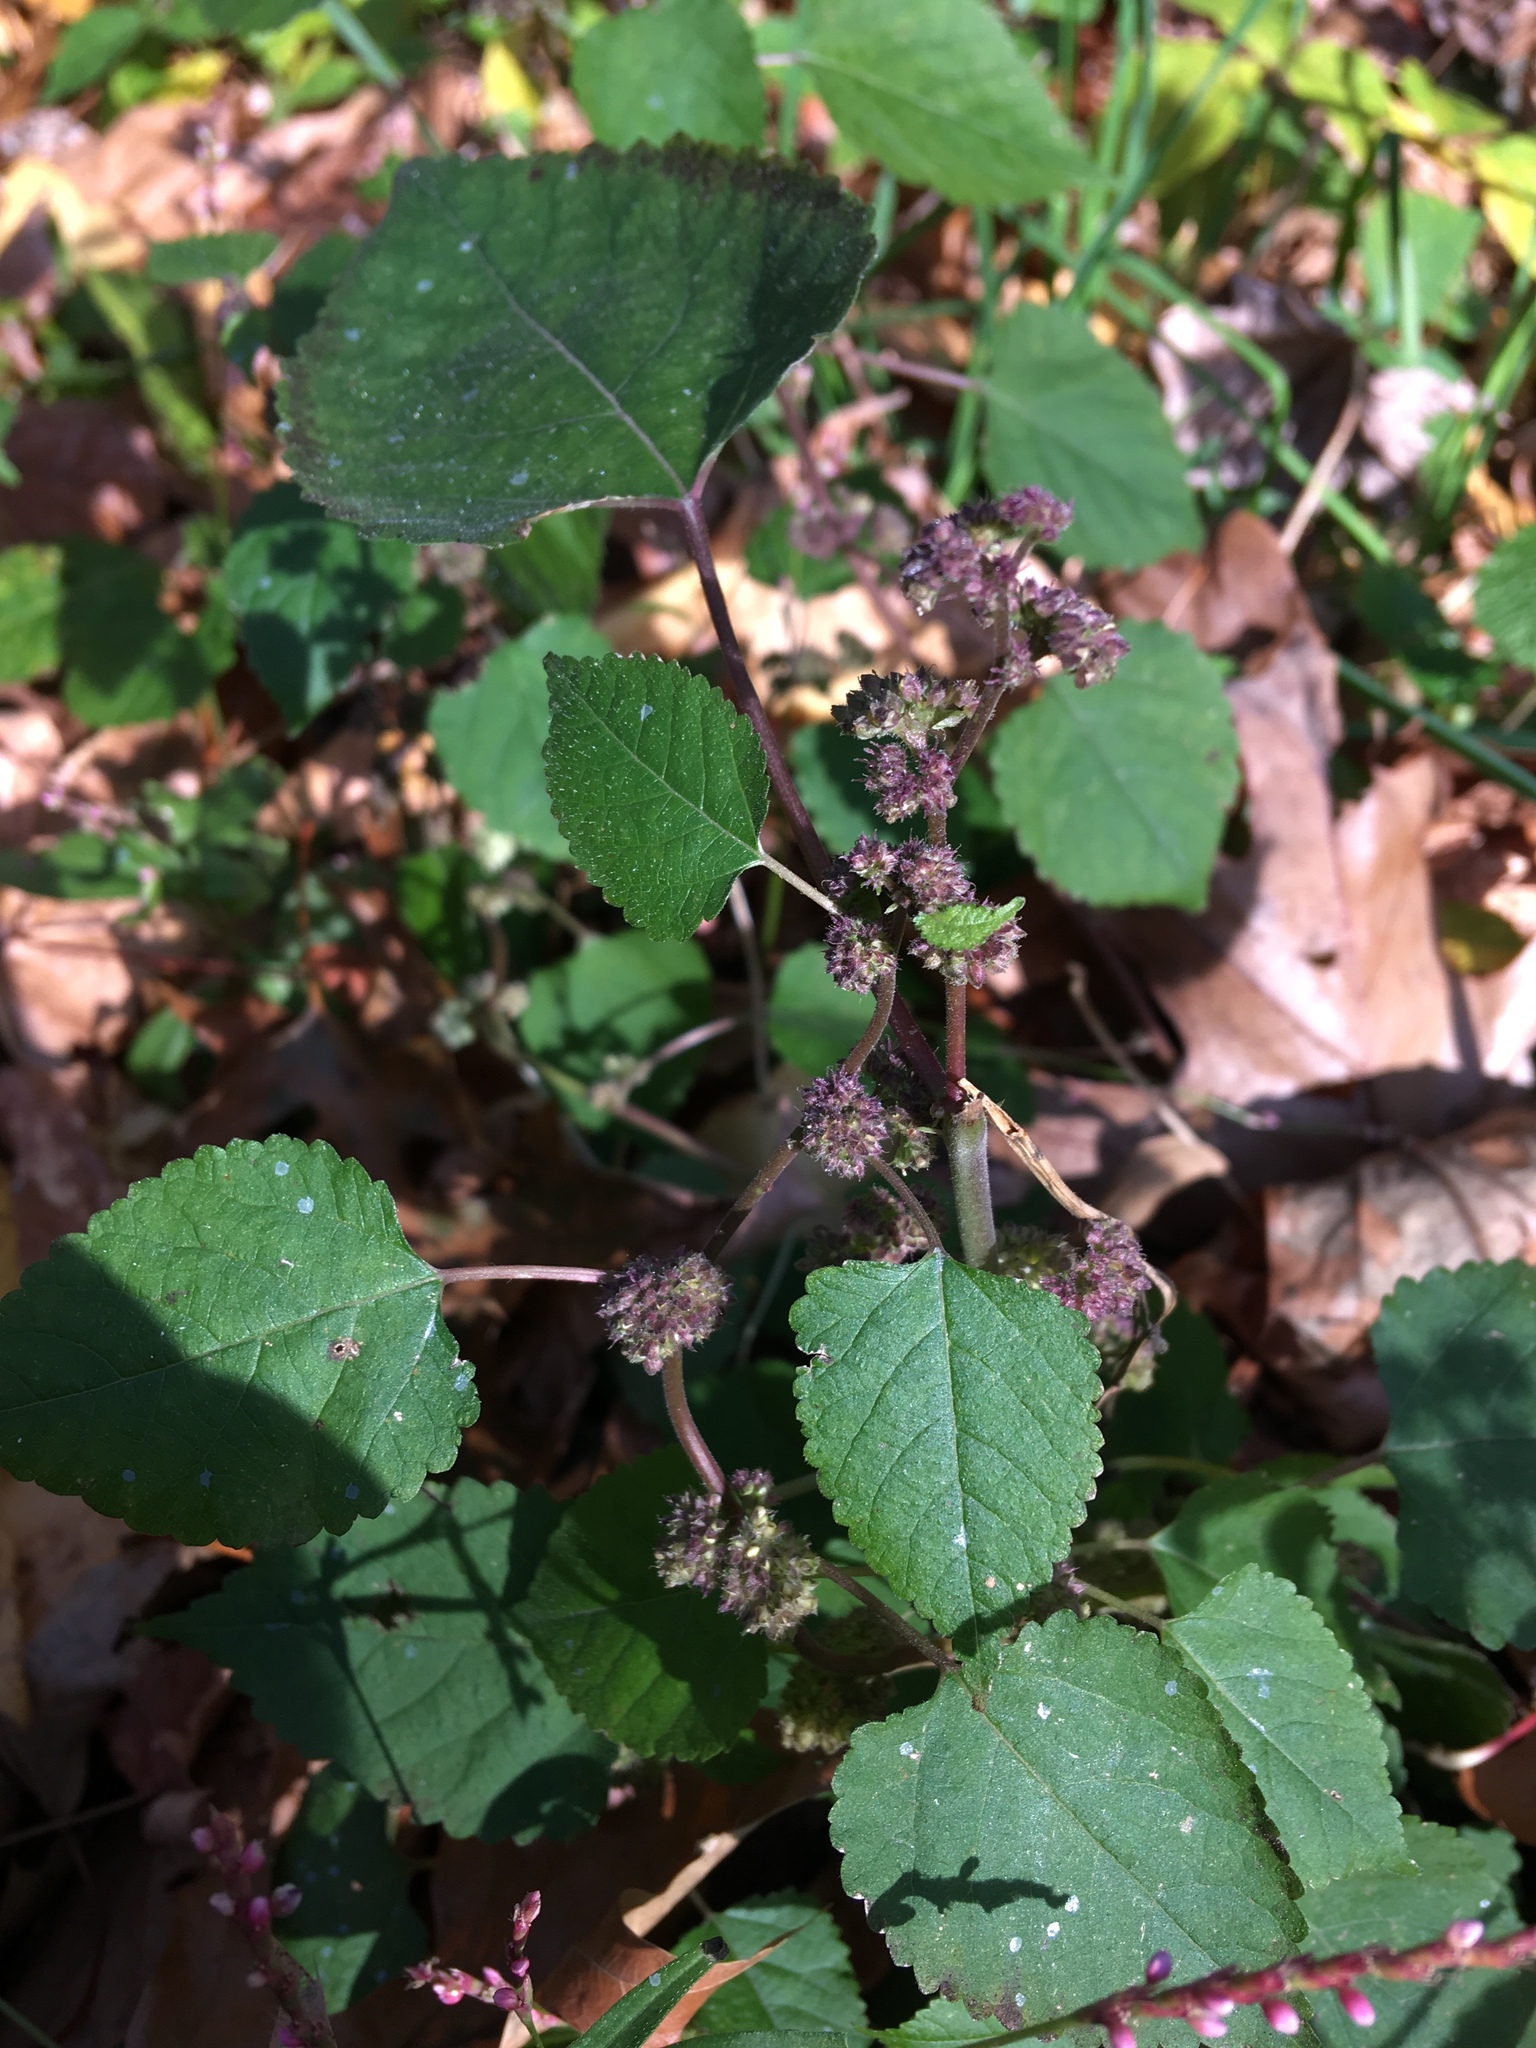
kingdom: Plantae
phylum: Tracheophyta
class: Magnoliopsida
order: Rosales
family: Moraceae
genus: Fatoua
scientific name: Fatoua villosa
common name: Hairy crabweed
